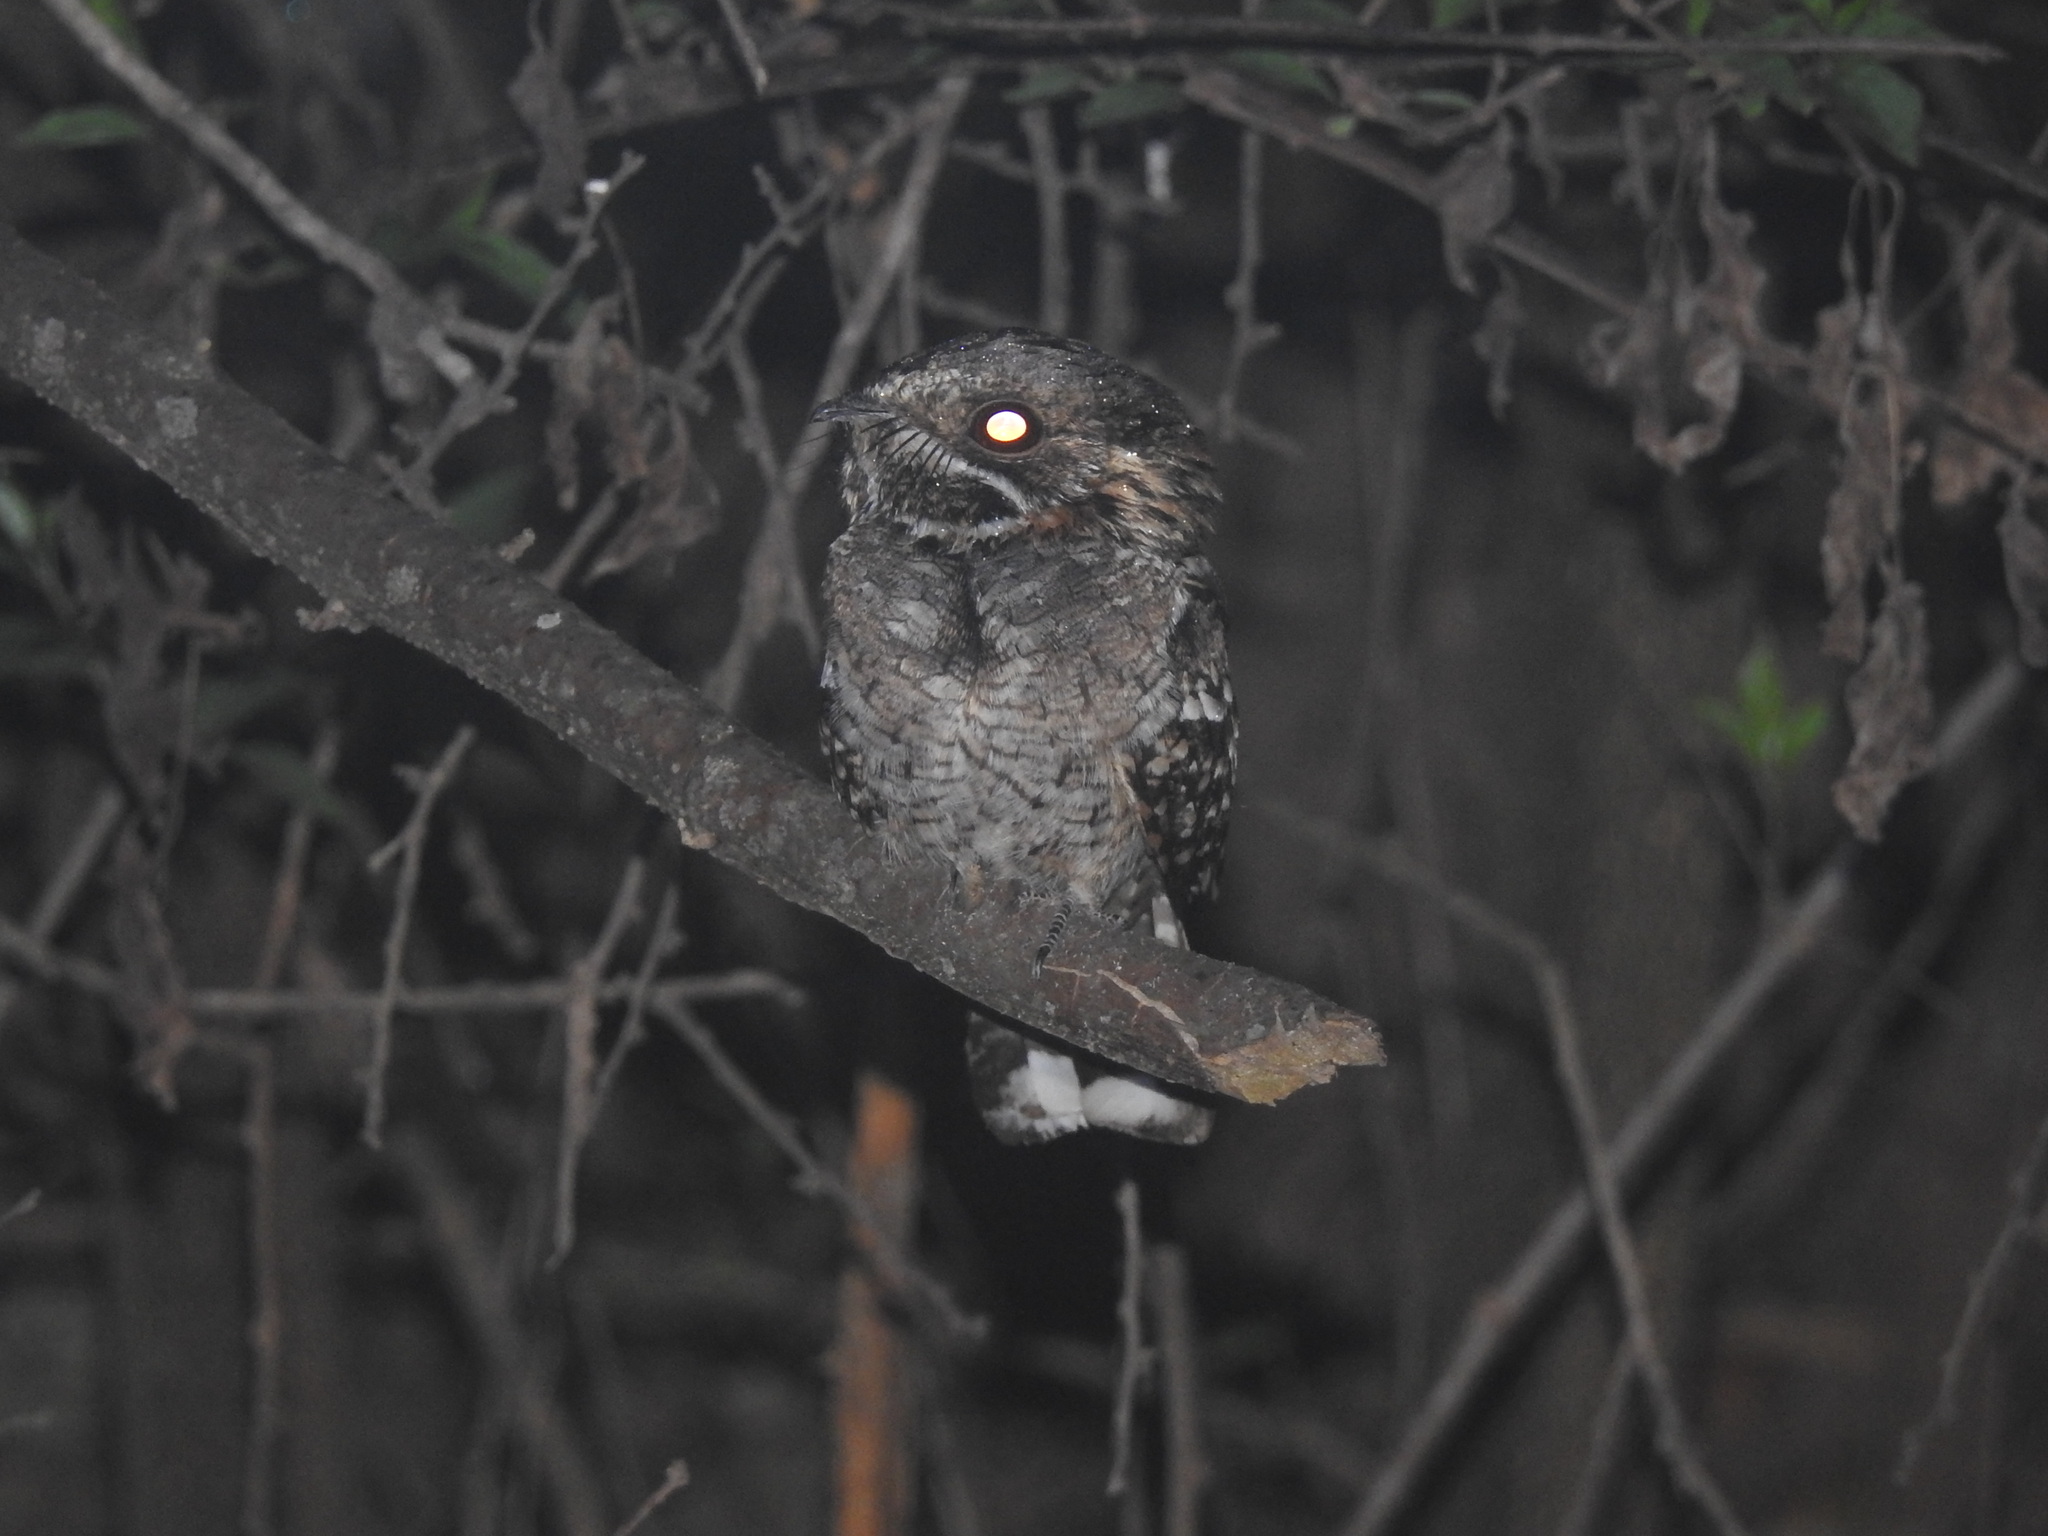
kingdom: Animalia
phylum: Chordata
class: Aves
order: Caprimulgiformes
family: Caprimulgidae
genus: Setopagis
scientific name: Setopagis parvula
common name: Little nightjar
